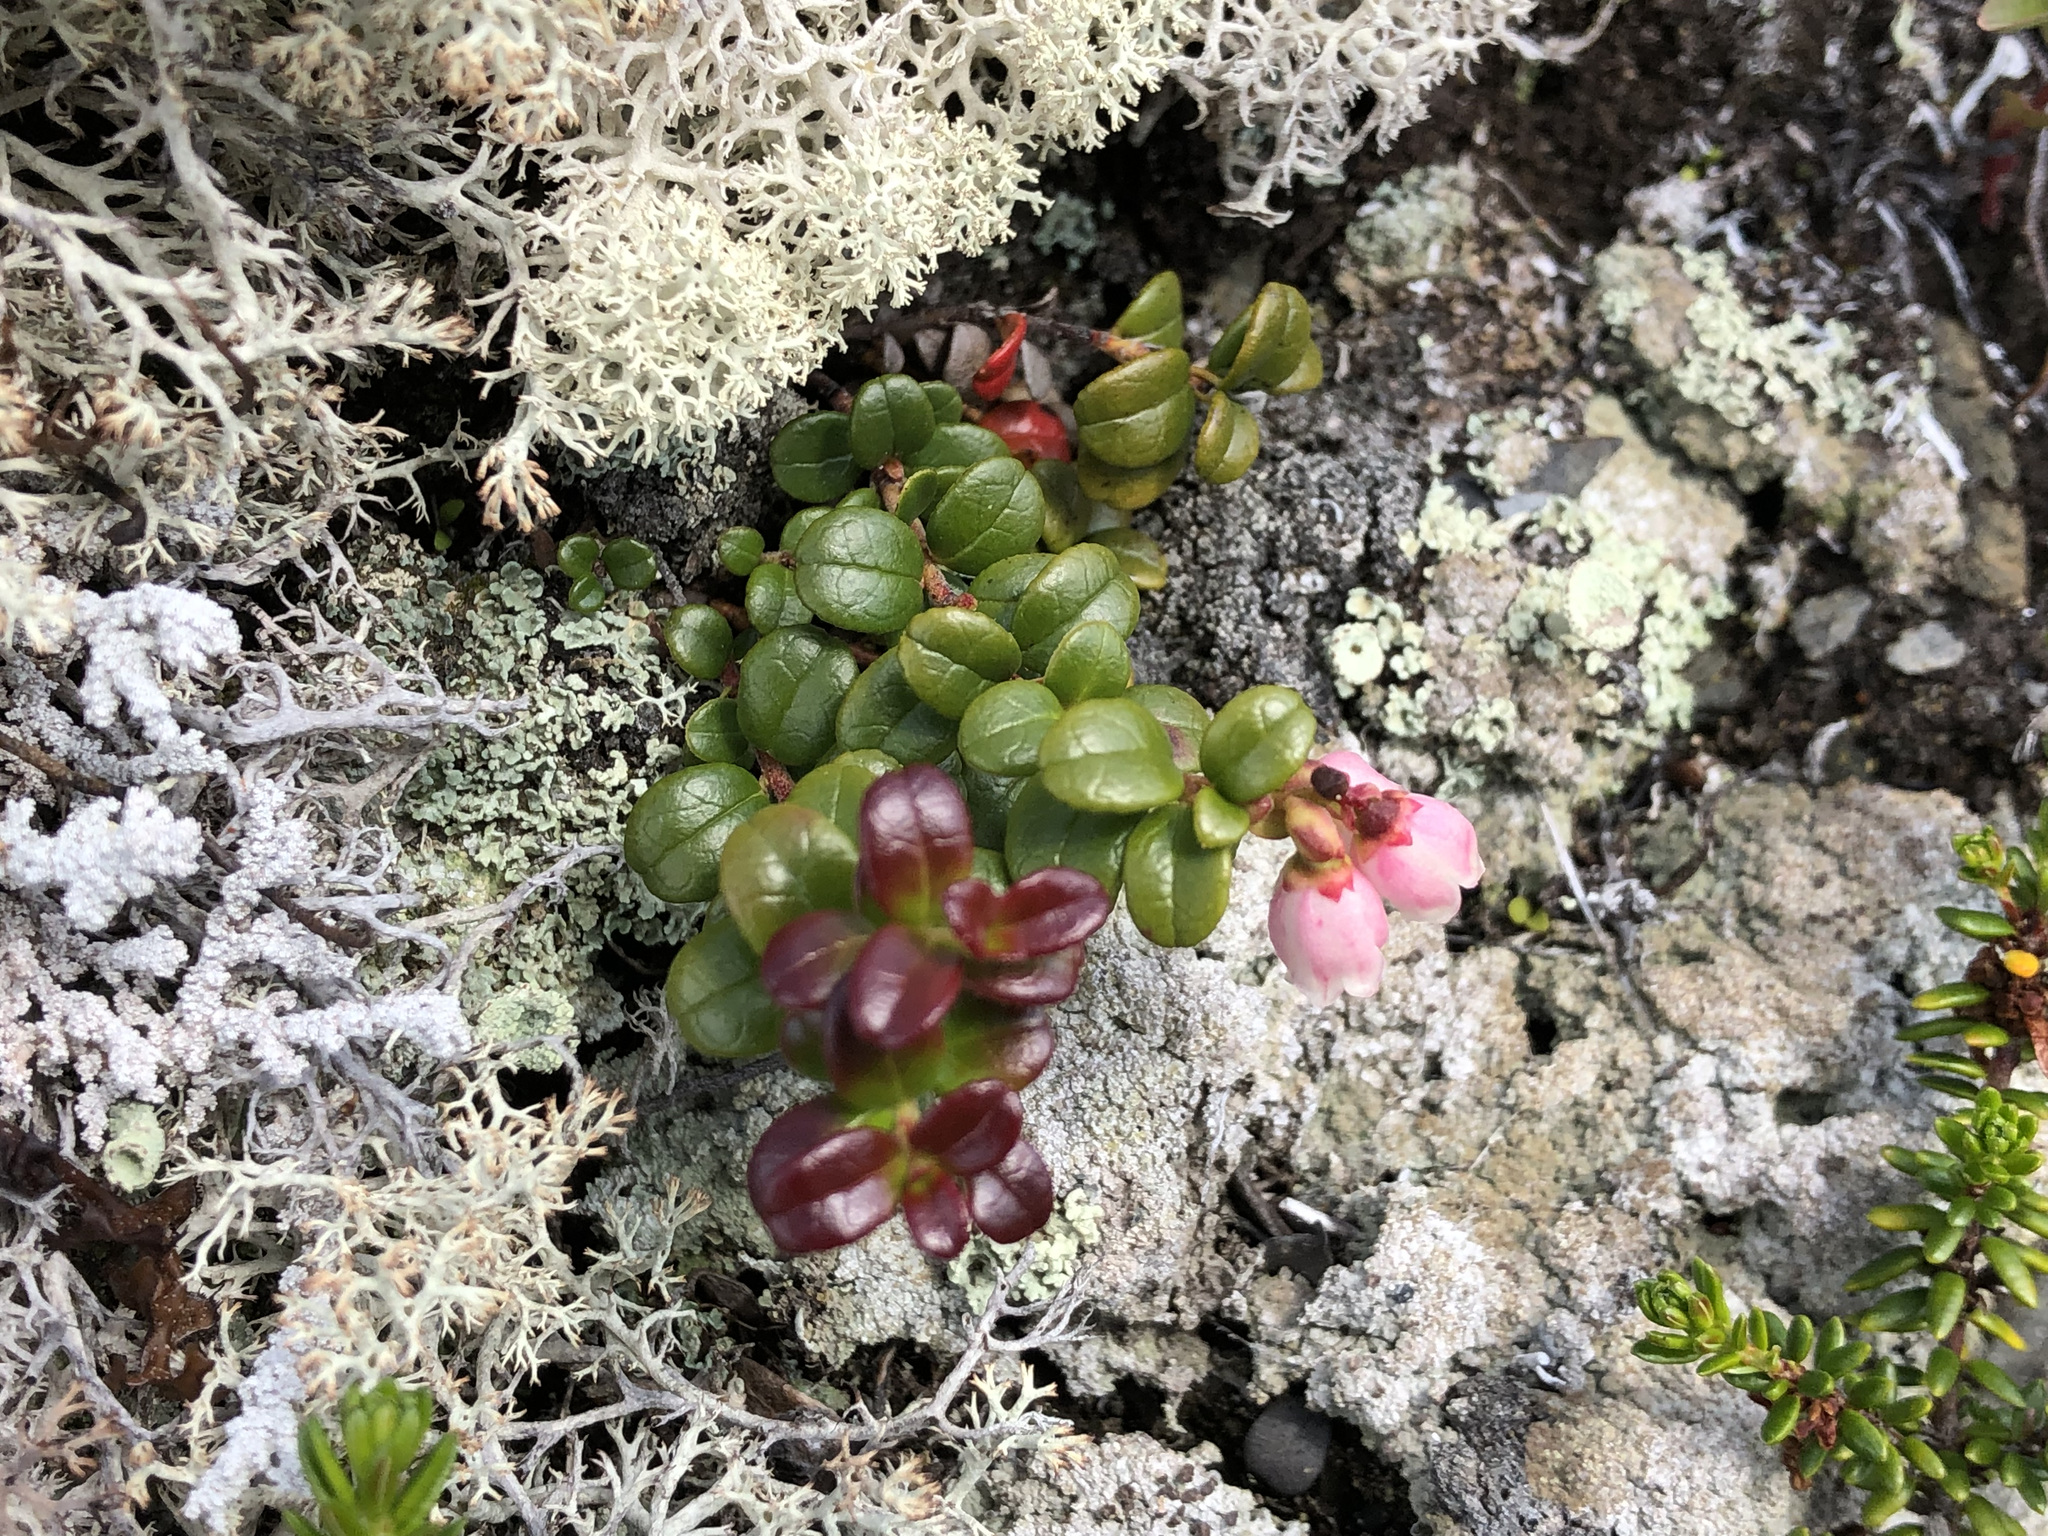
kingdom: Plantae
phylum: Tracheophyta
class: Magnoliopsida
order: Ericales
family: Ericaceae
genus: Vaccinium
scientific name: Vaccinium vitis-idaea
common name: Cowberry
